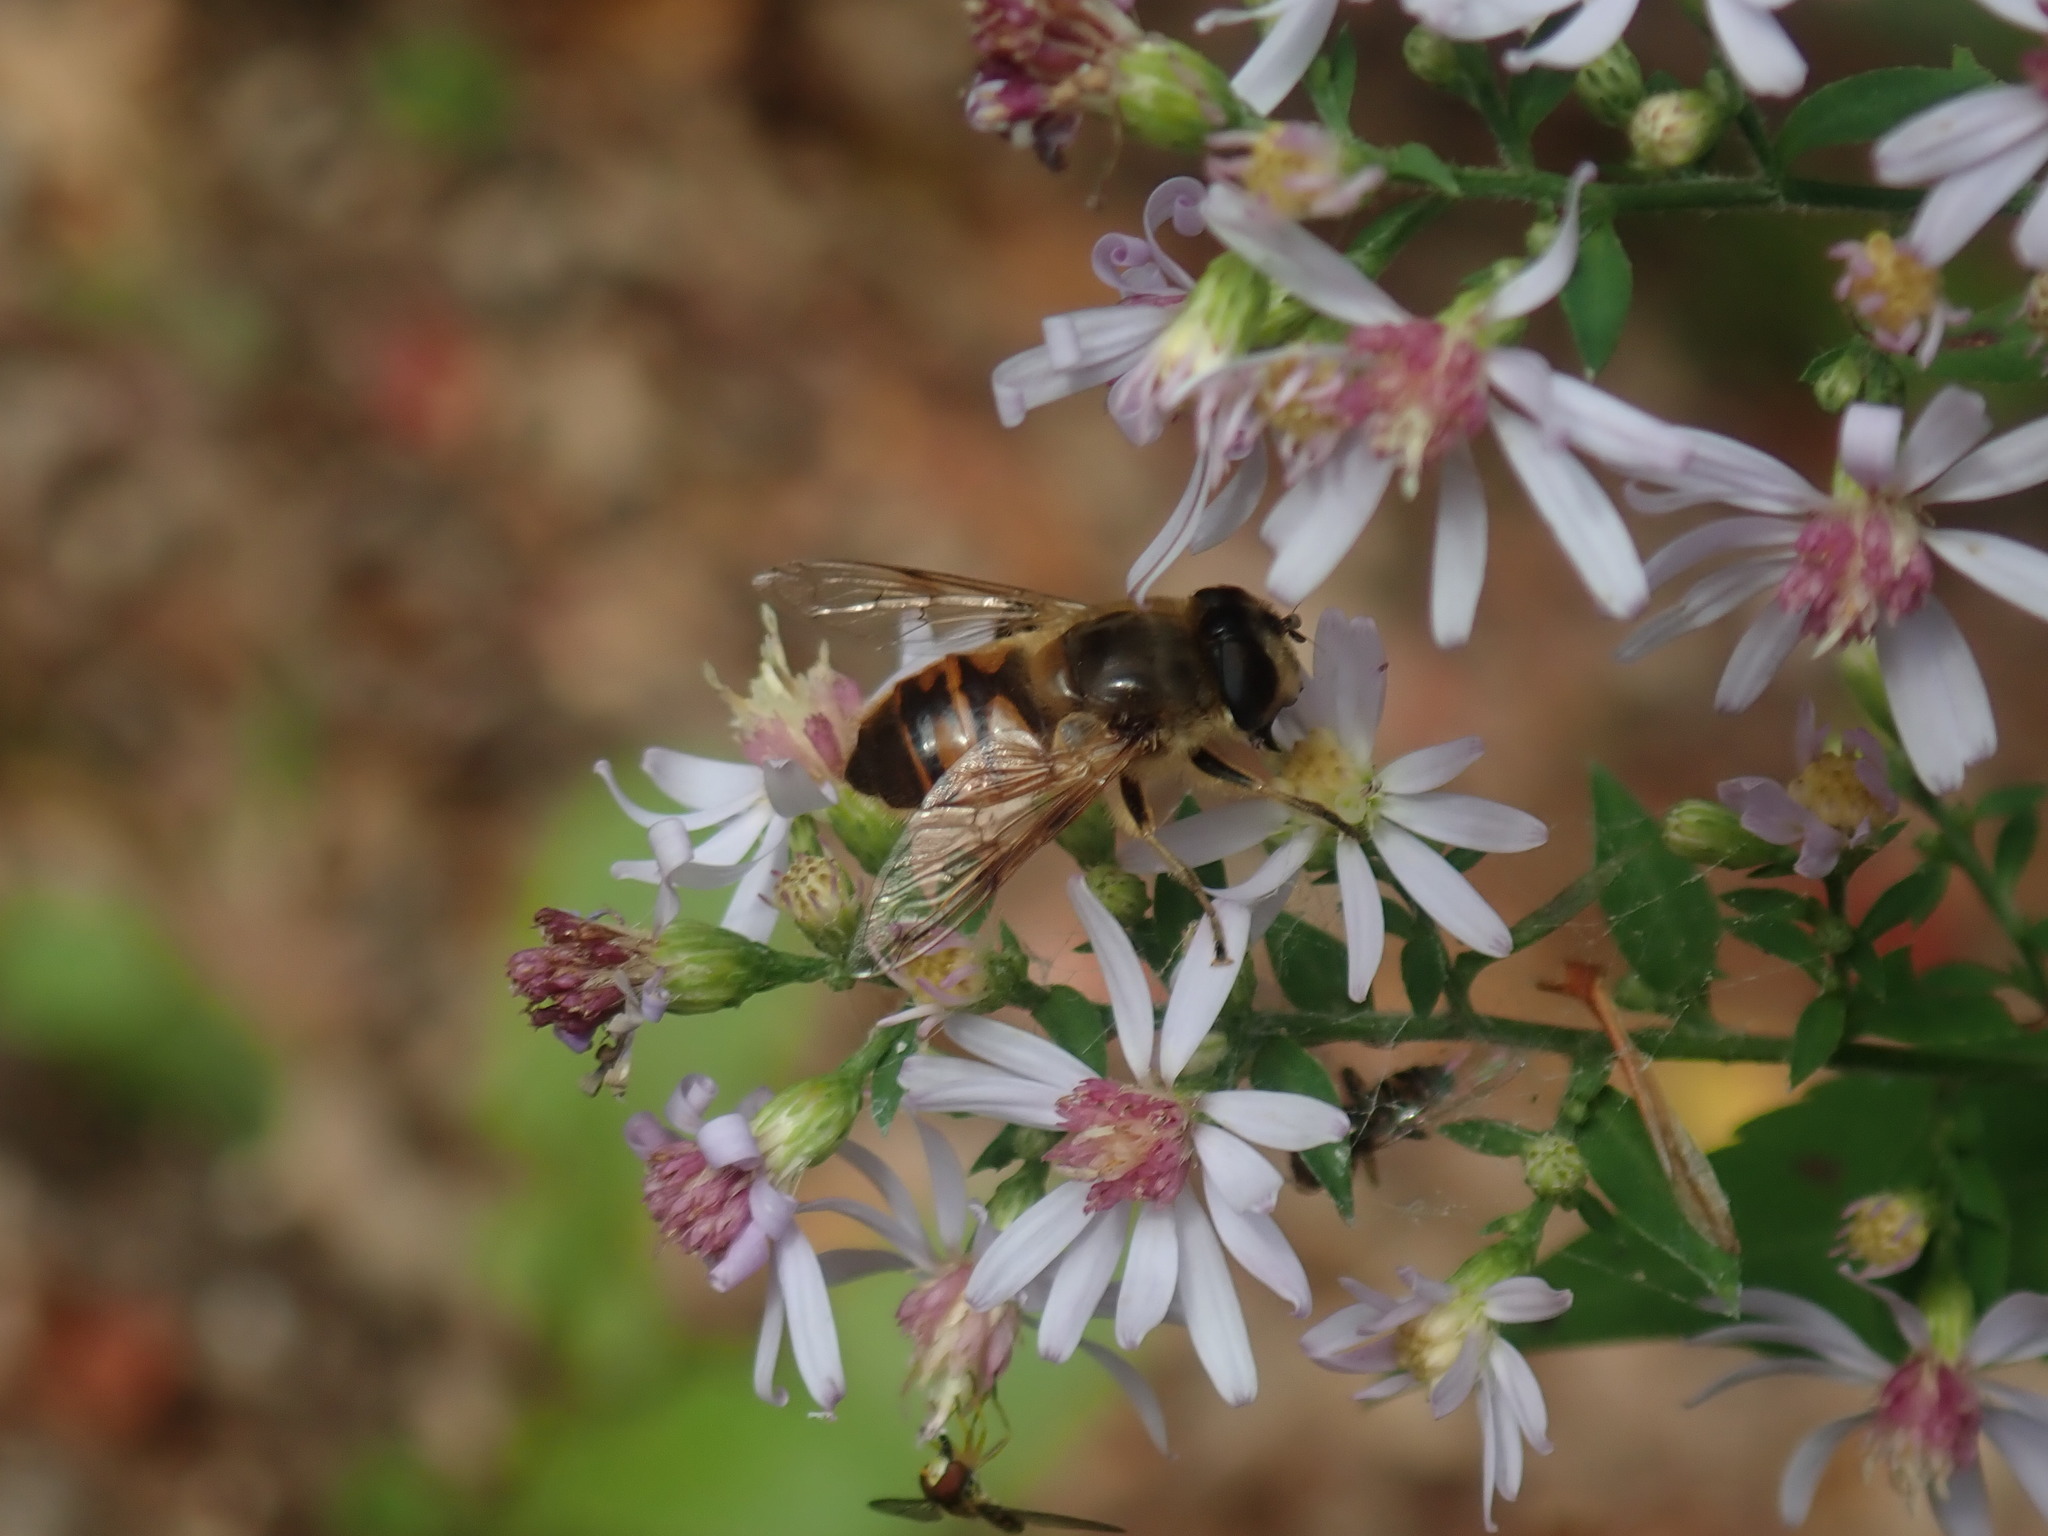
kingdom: Animalia
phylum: Arthropoda
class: Insecta
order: Diptera
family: Syrphidae
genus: Eristalis
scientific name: Eristalis tenax
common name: Drone fly
